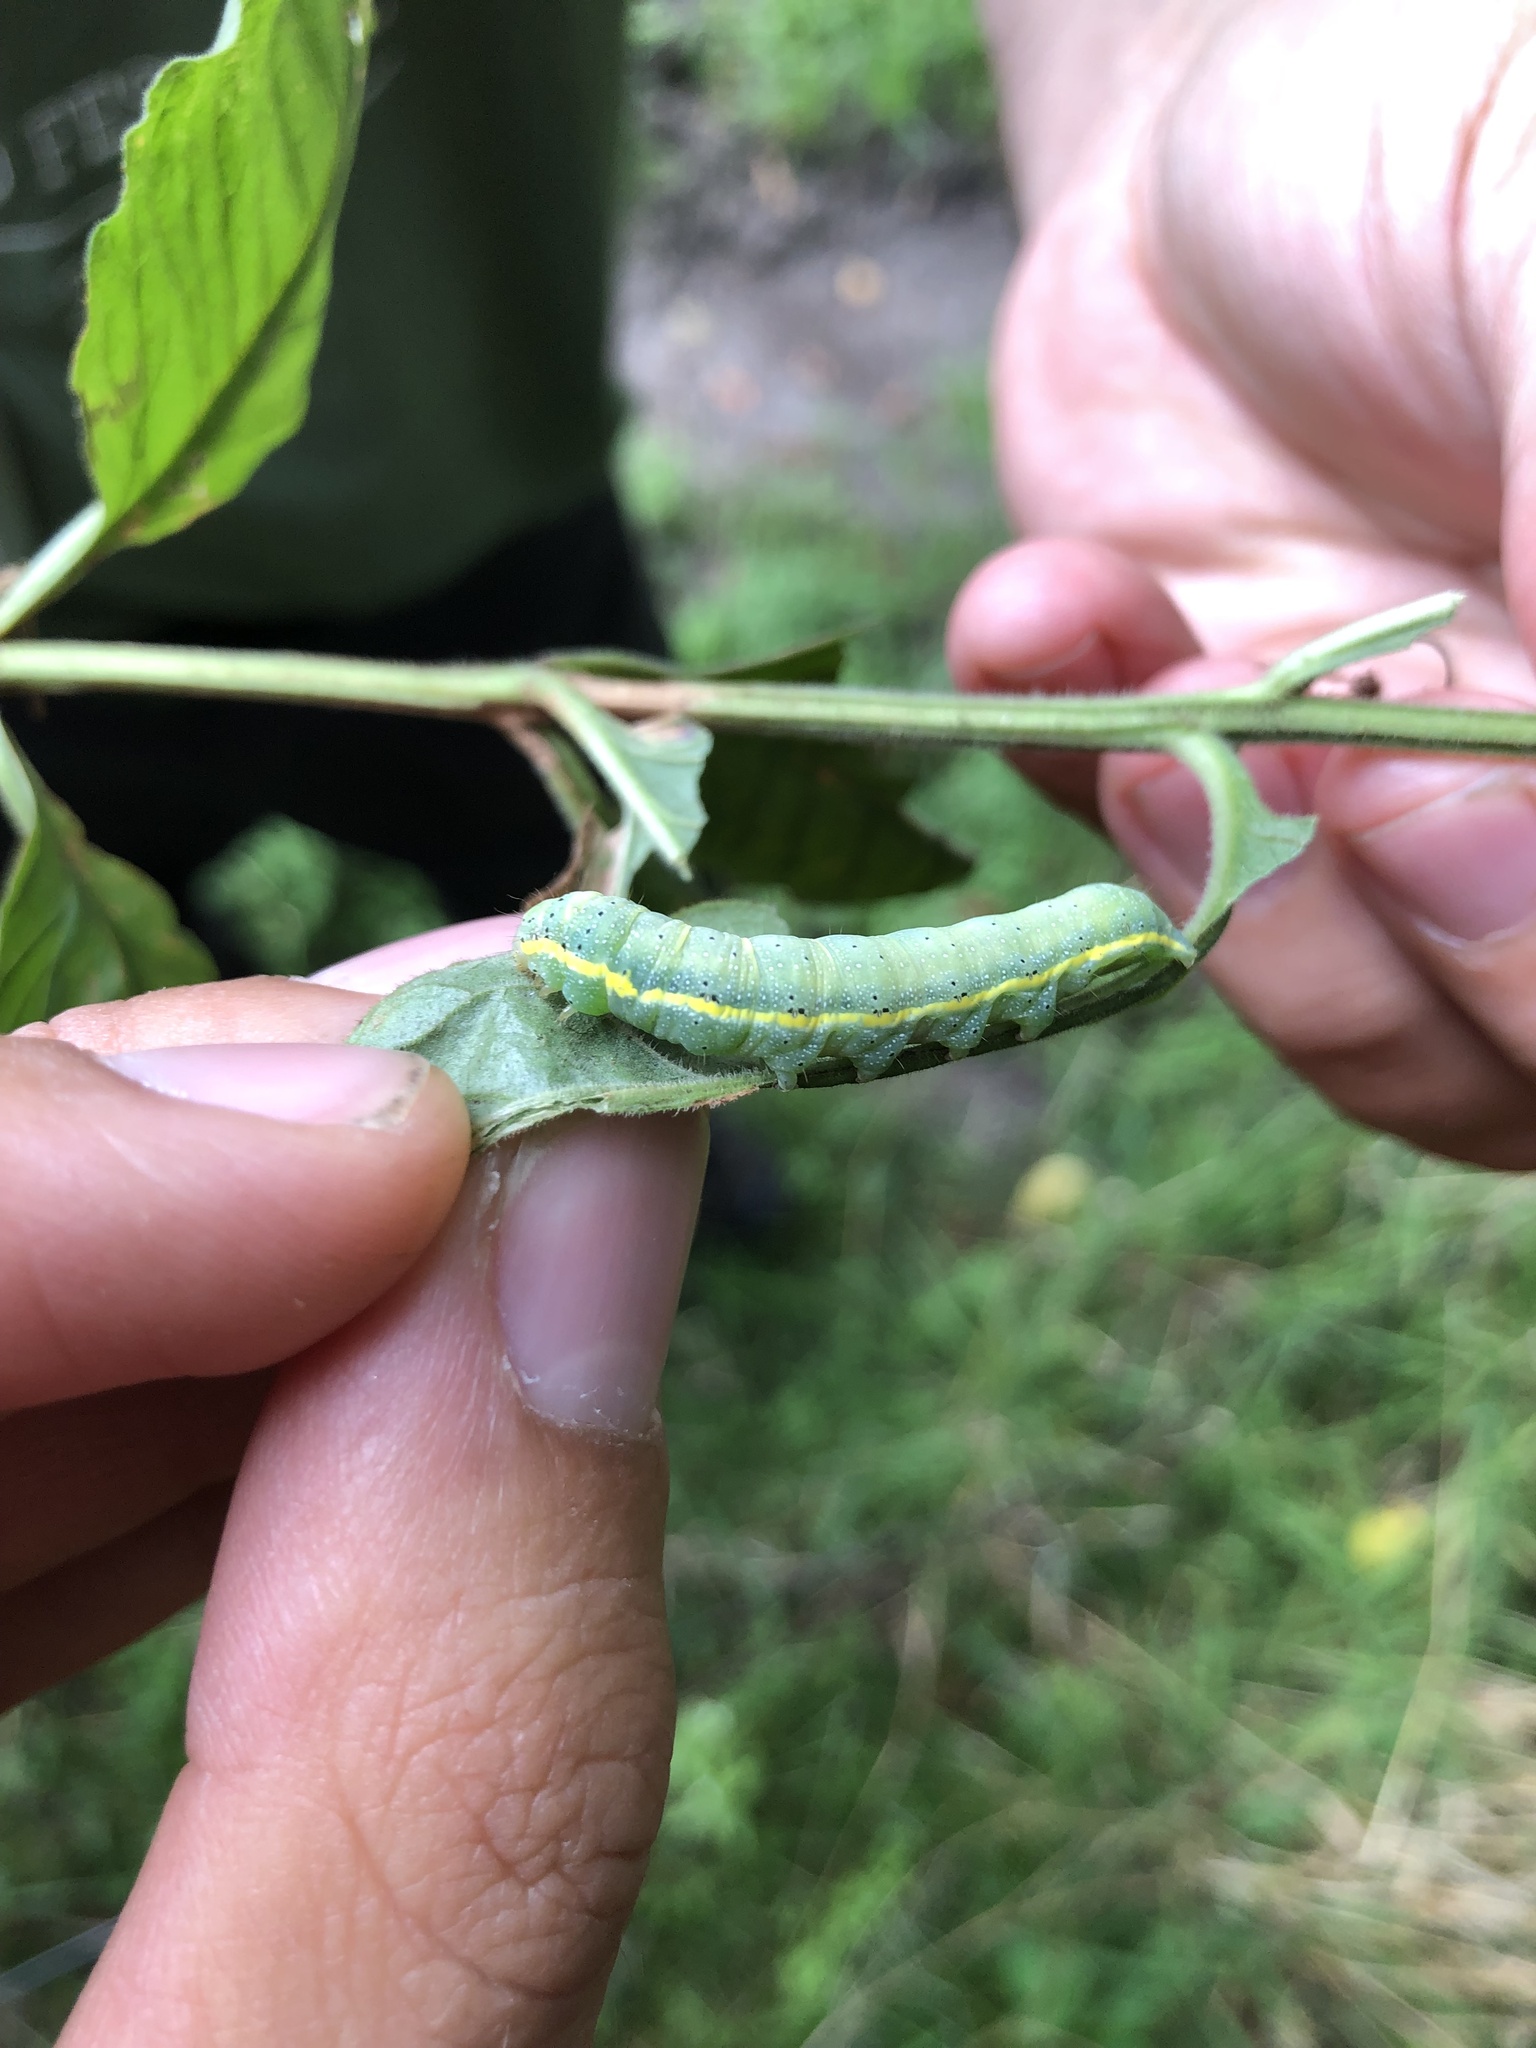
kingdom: Animalia
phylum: Arthropoda
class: Insecta
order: Lepidoptera
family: Noctuidae
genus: Lacanobia
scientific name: Lacanobia oleracea
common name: Bright-line brown-eye
